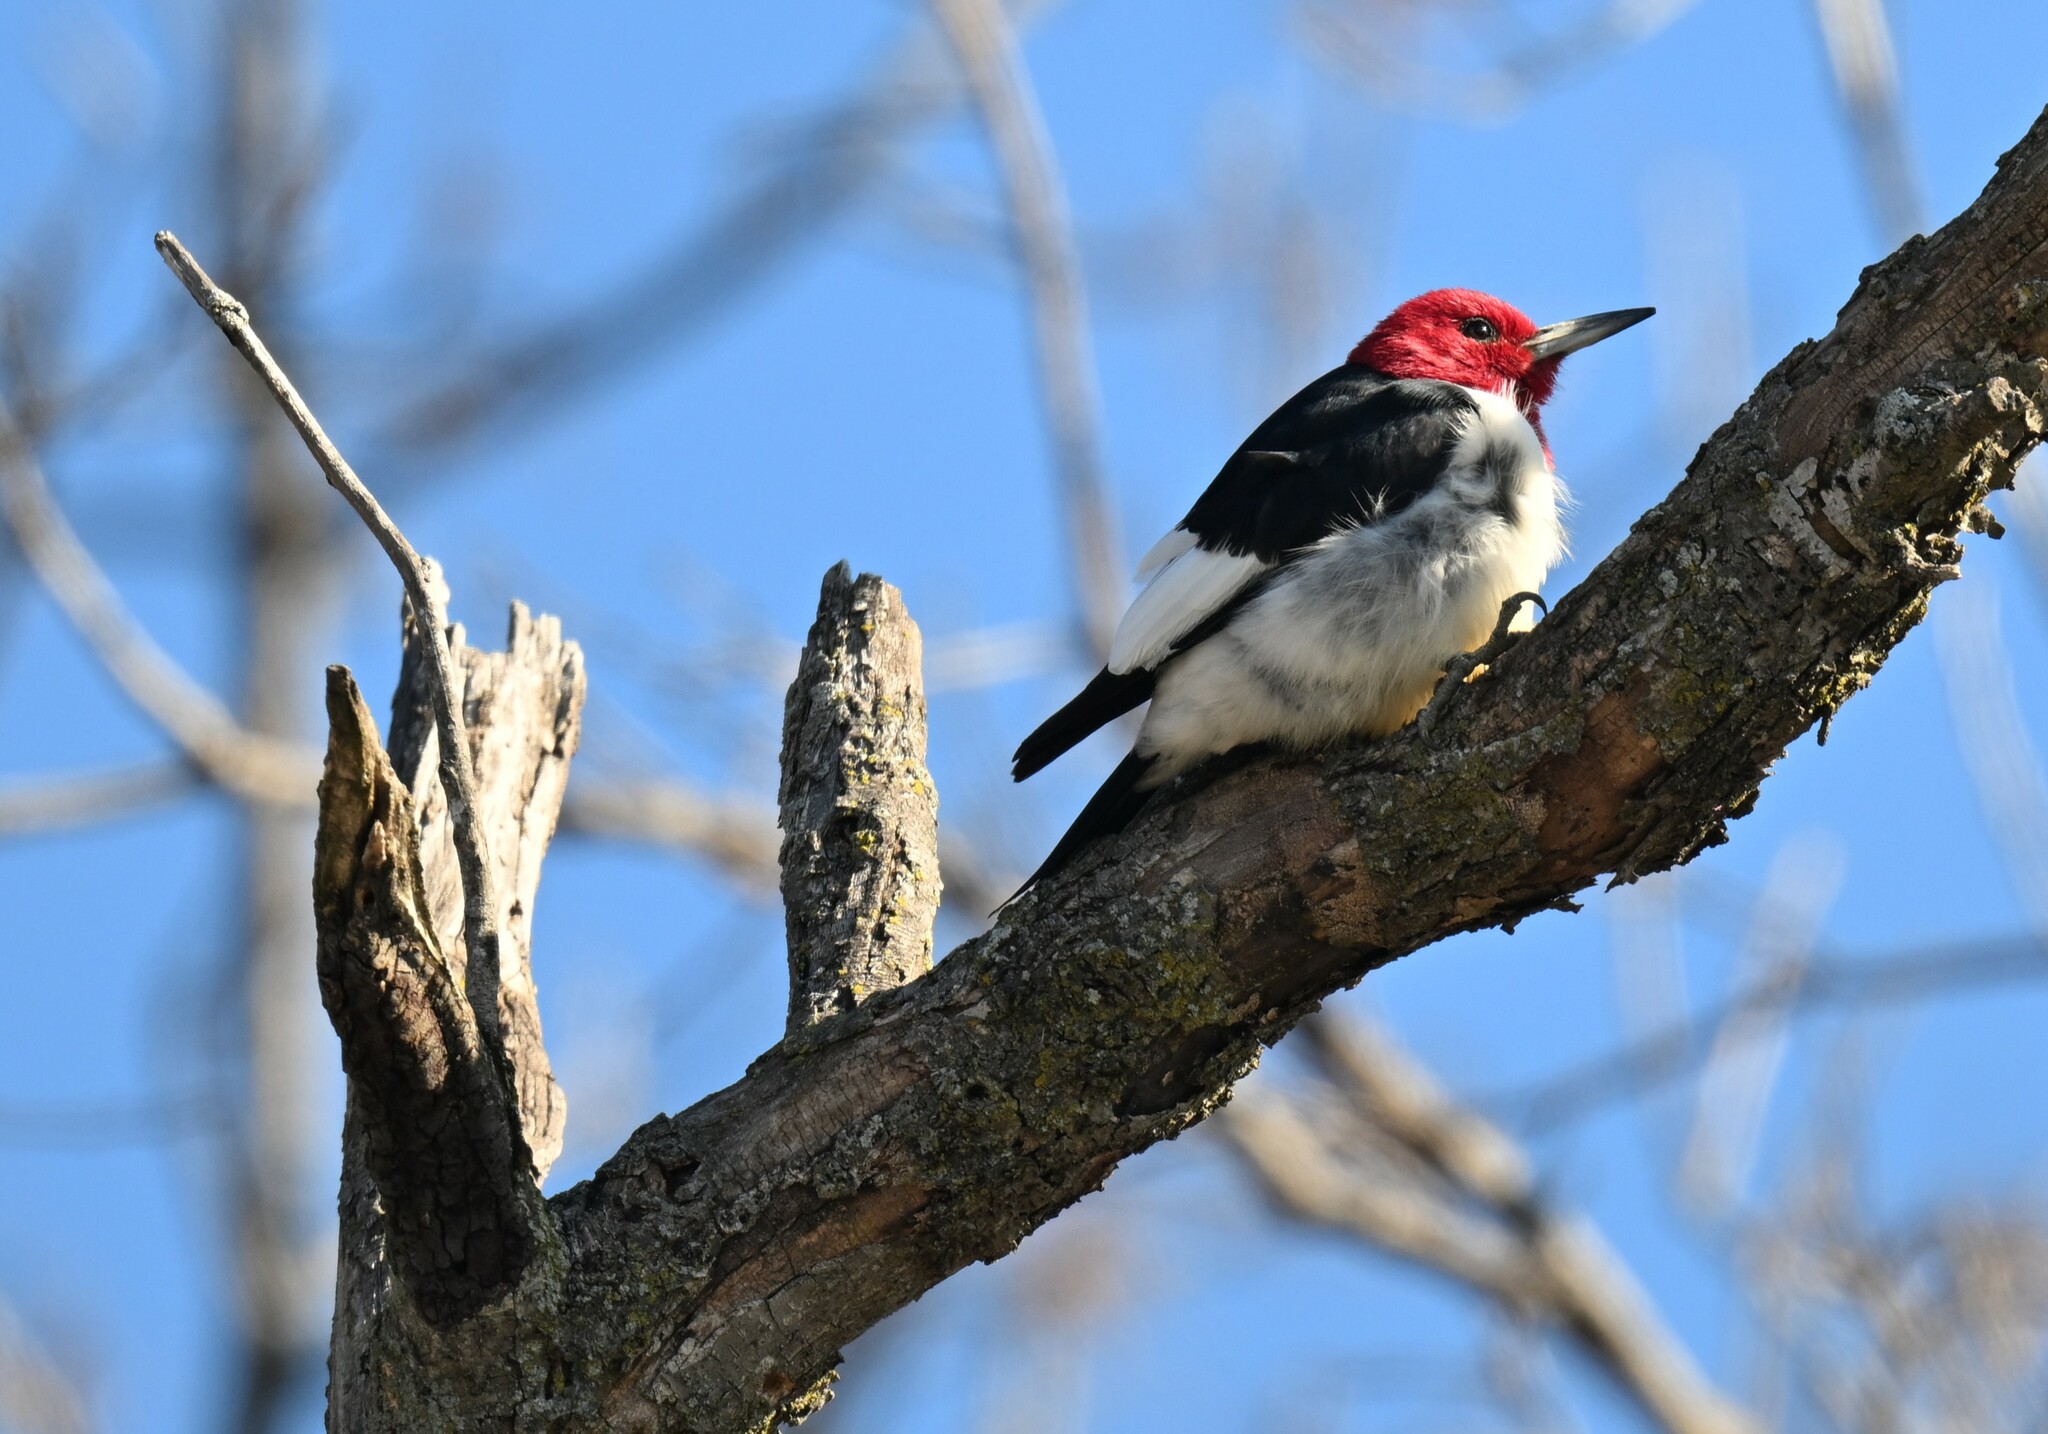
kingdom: Animalia
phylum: Chordata
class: Aves
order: Piciformes
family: Picidae
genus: Melanerpes
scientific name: Melanerpes erythrocephalus
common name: Red-headed woodpecker
